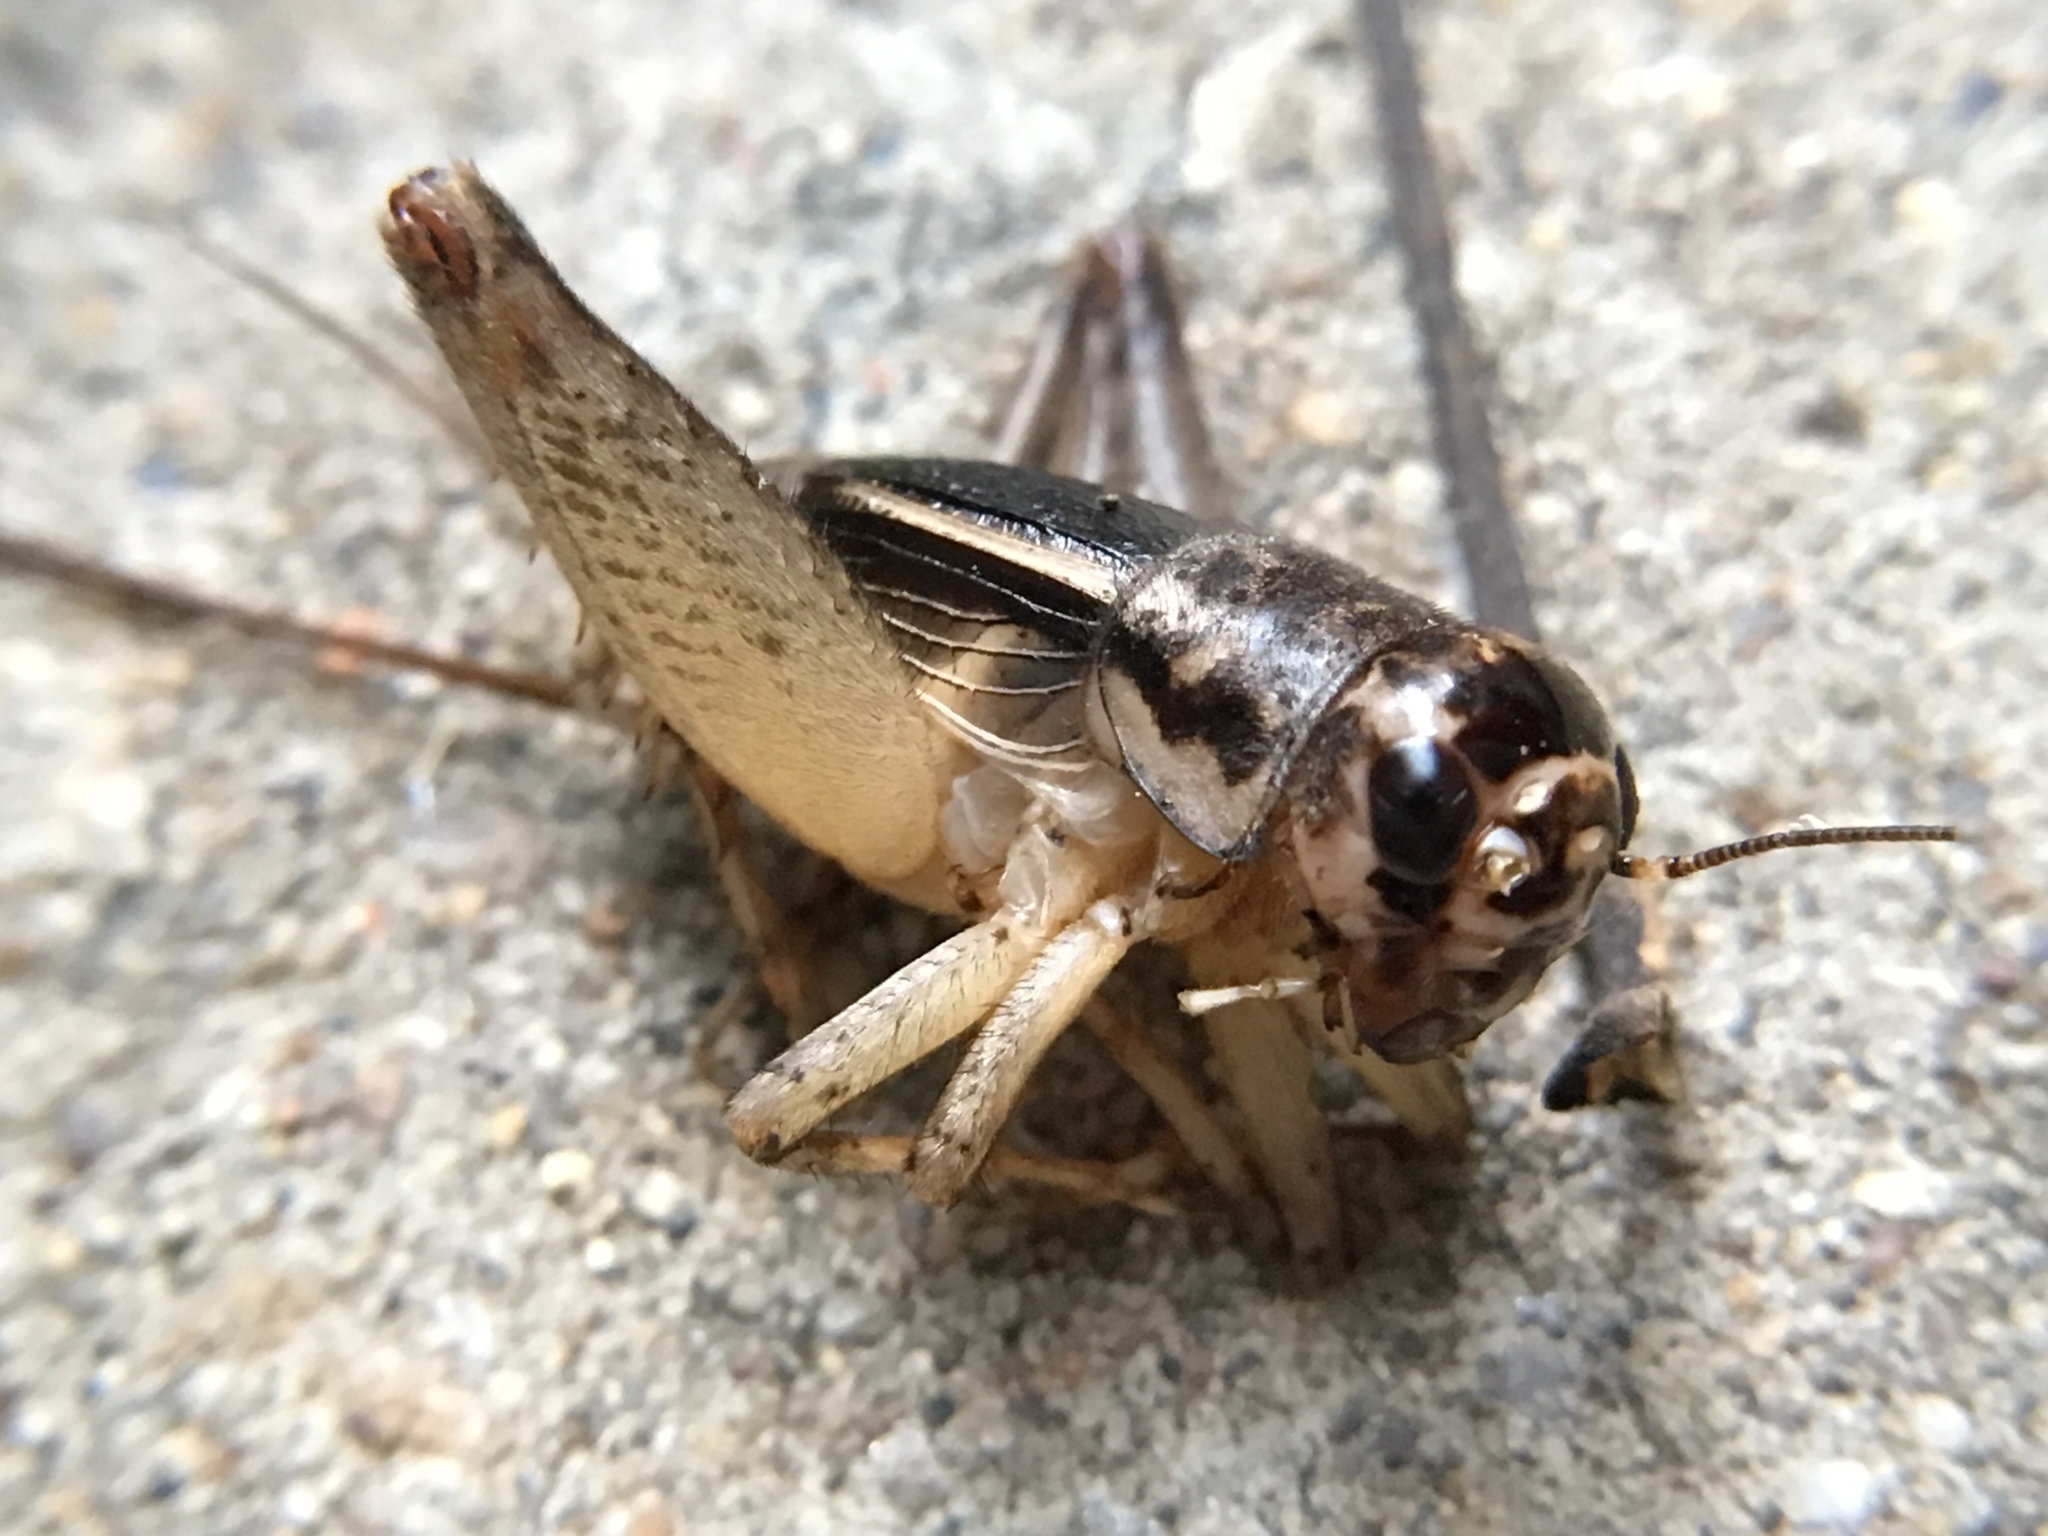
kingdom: Animalia
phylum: Arthropoda
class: Insecta
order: Orthoptera
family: Gryllidae
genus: Velarifictorus
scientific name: Velarifictorus micado
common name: Japanese burrowing cricket
